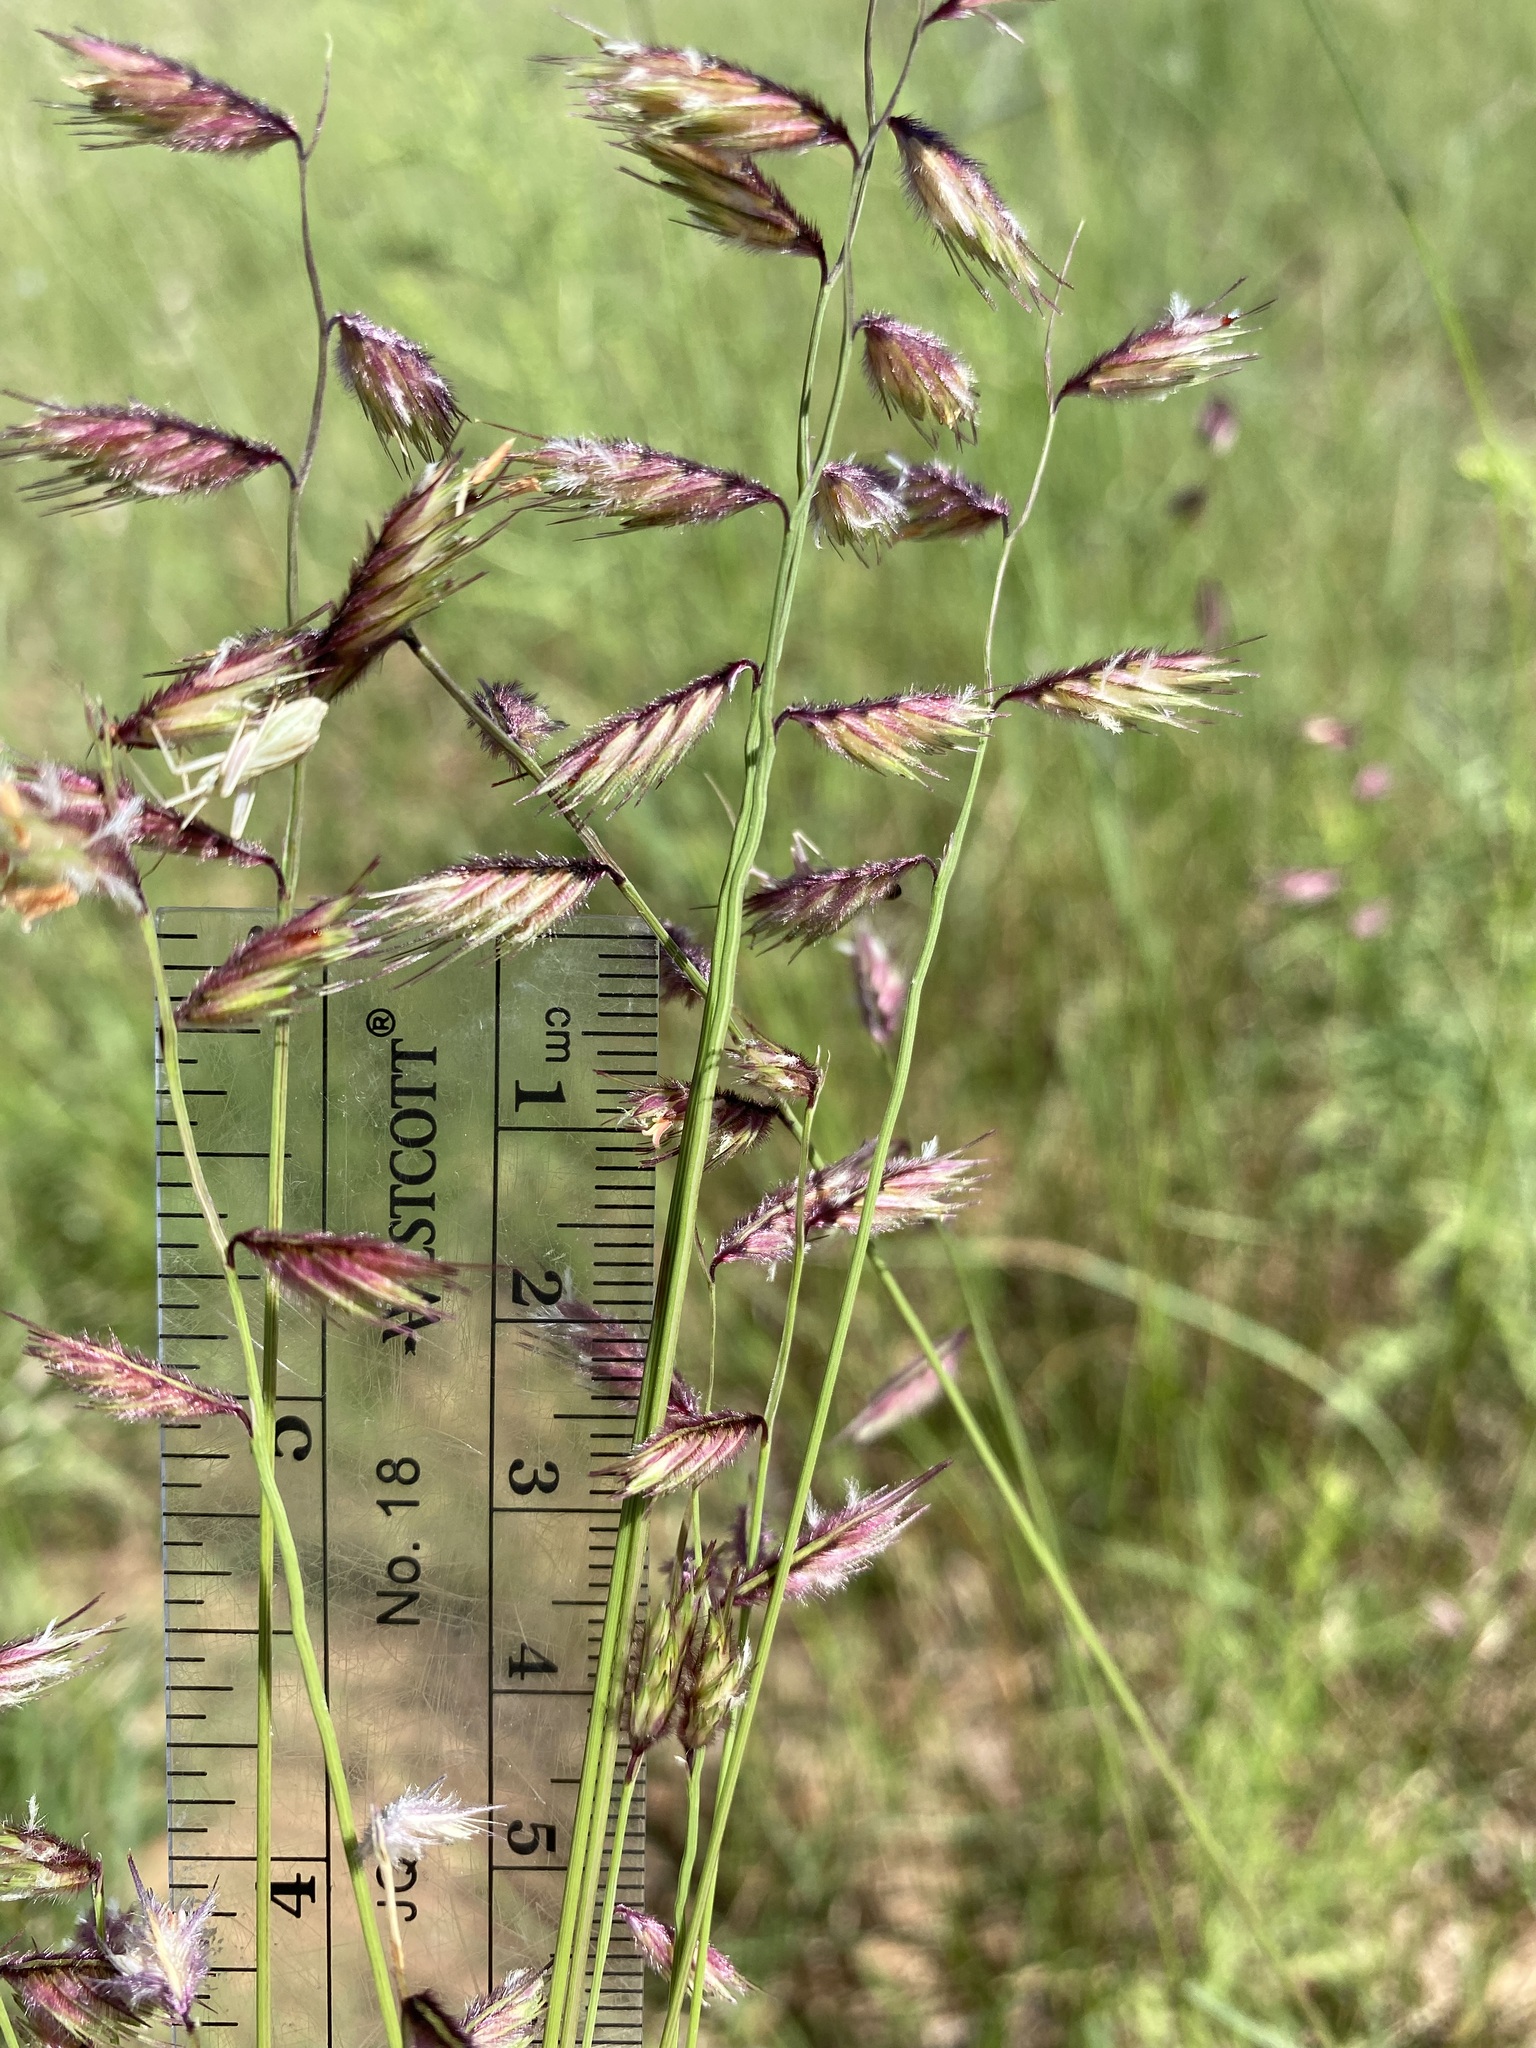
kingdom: Plantae
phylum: Tracheophyta
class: Liliopsida
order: Poales
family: Poaceae
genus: Bouteloua
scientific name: Bouteloua chondrosioides
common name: Sprucetop grama
